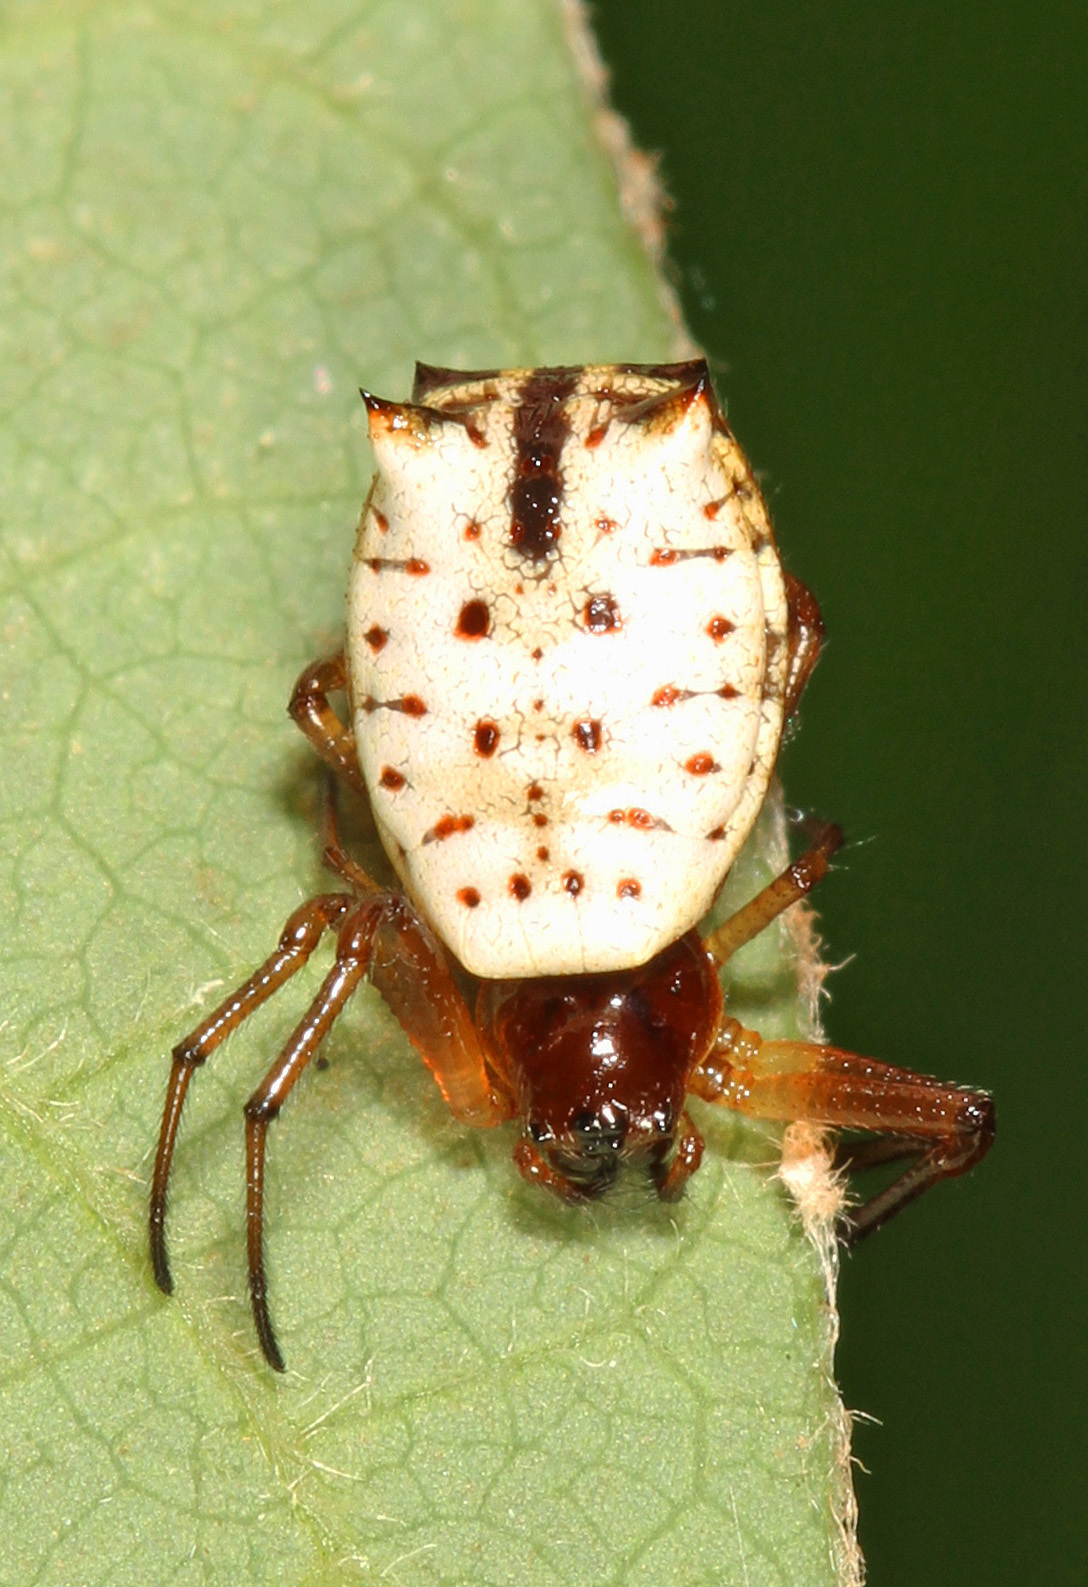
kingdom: Animalia
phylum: Arthropoda
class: Arachnida
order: Araneae
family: Araneidae
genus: Micrathena
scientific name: Micrathena mitrata
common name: Orb weavers
